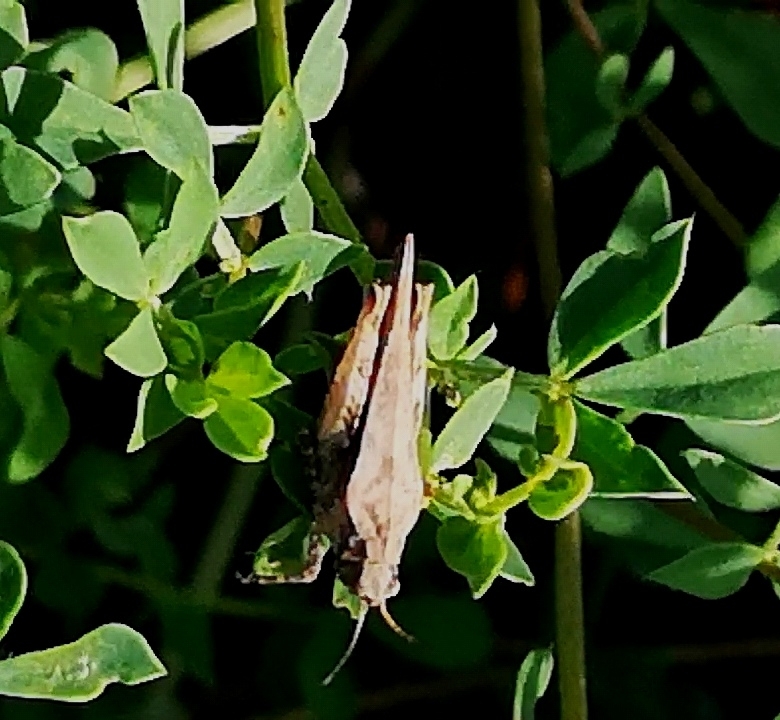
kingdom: Animalia
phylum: Arthropoda
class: Insecta
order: Orthoptera
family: Tetrigidae
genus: Tetrix
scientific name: Tetrix subulata
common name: Slender ground-hopper
